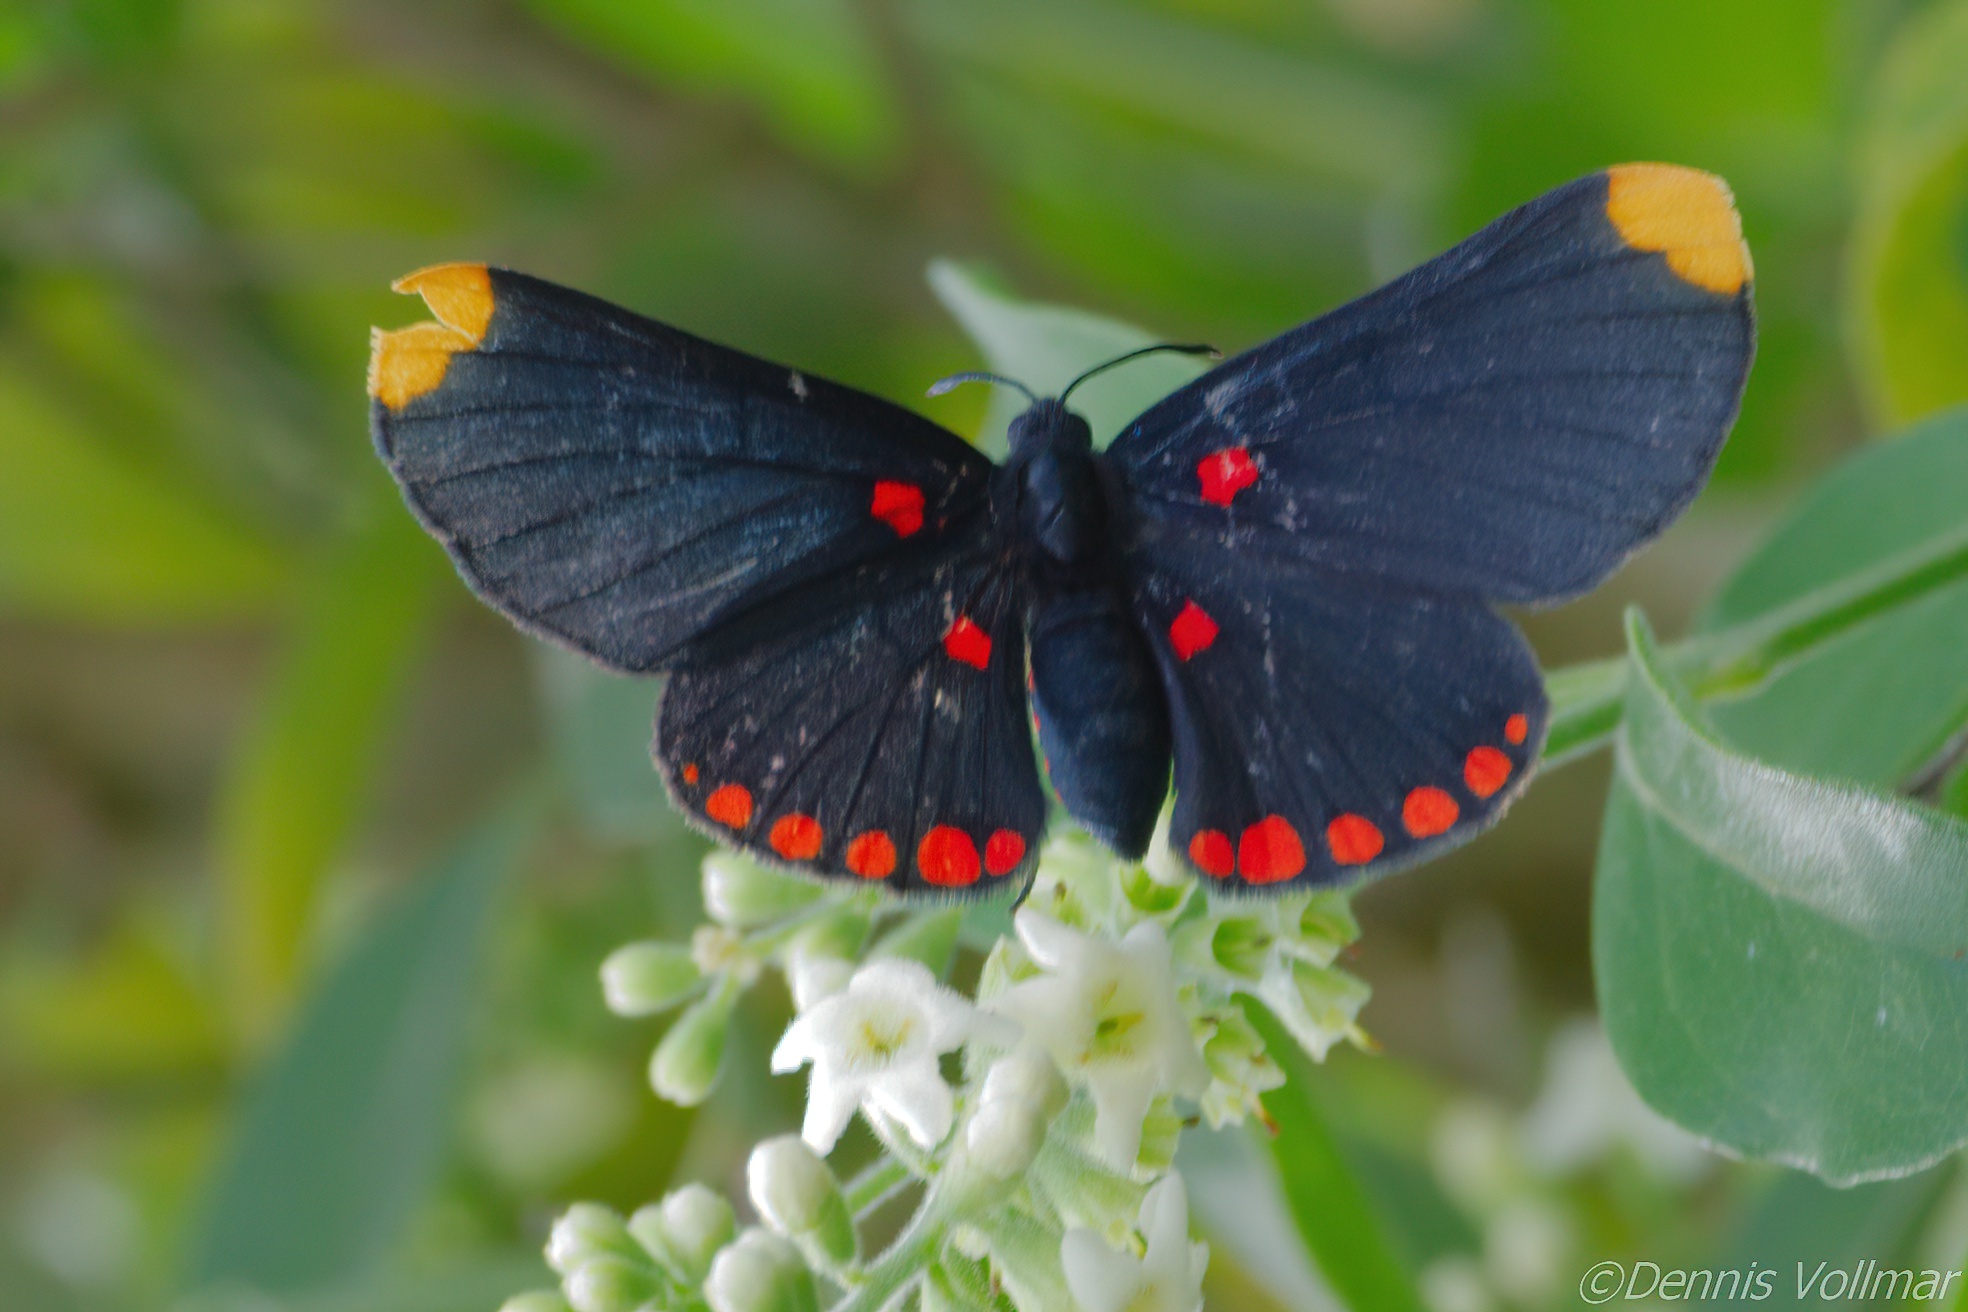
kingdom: Animalia
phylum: Arthropoda
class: Insecta
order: Lepidoptera
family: Lycaenidae
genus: Melanis
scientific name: Melanis pixe
